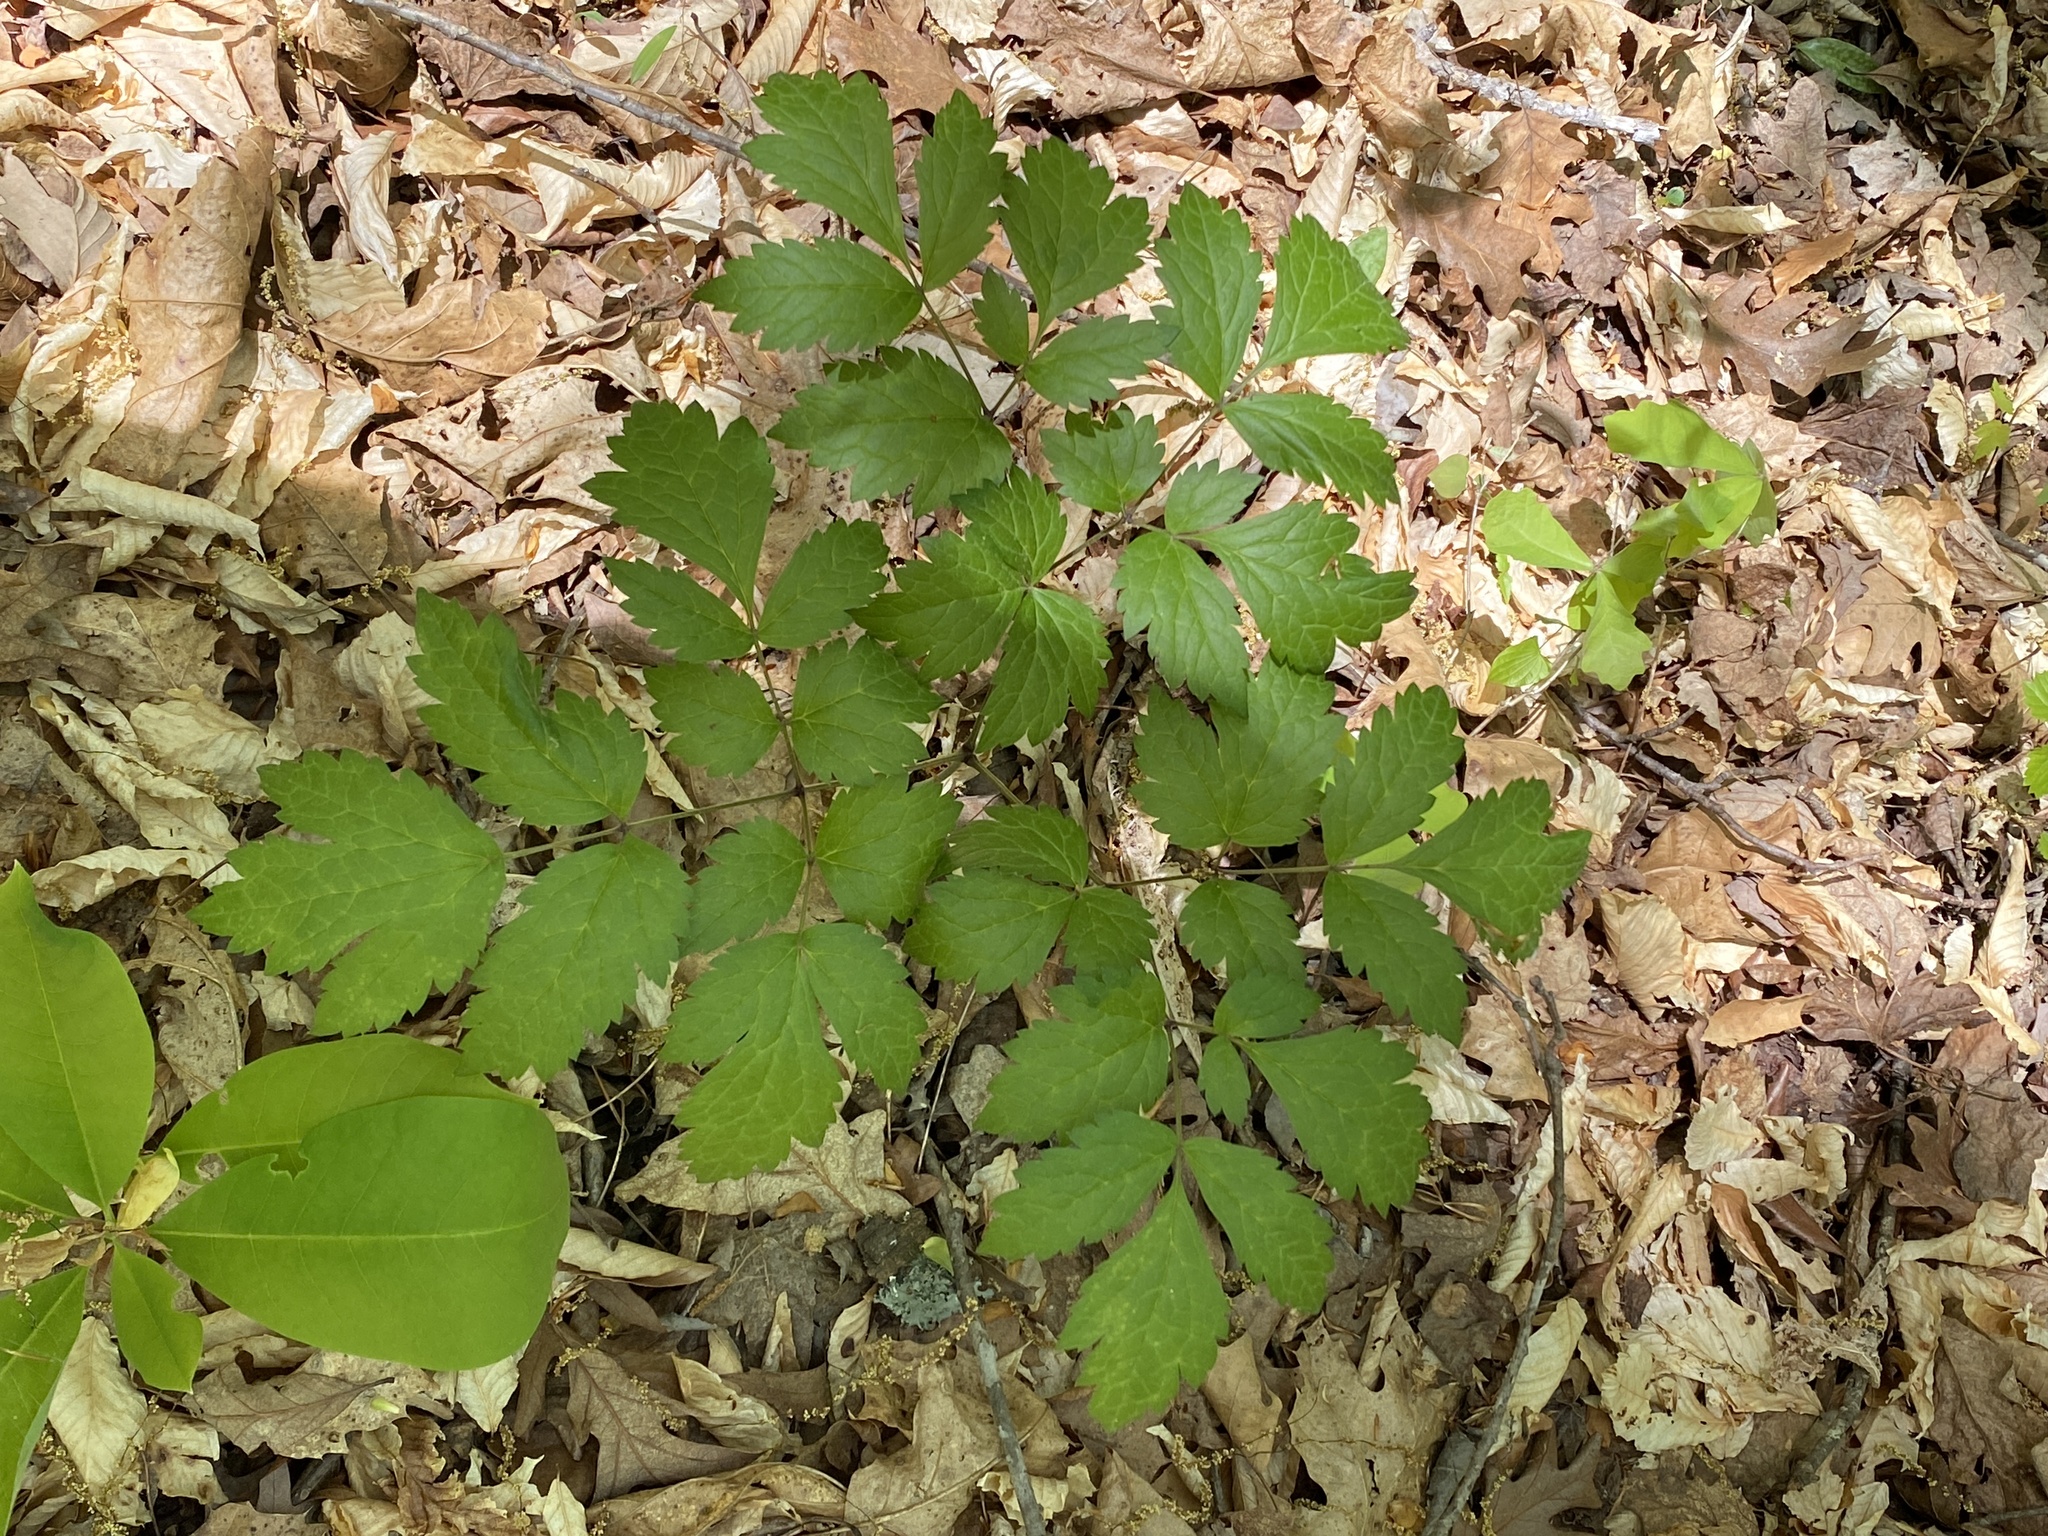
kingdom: Plantae
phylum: Tracheophyta
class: Magnoliopsida
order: Ranunculales
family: Ranunculaceae
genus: Actaea
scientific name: Actaea racemosa
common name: Black cohosh
